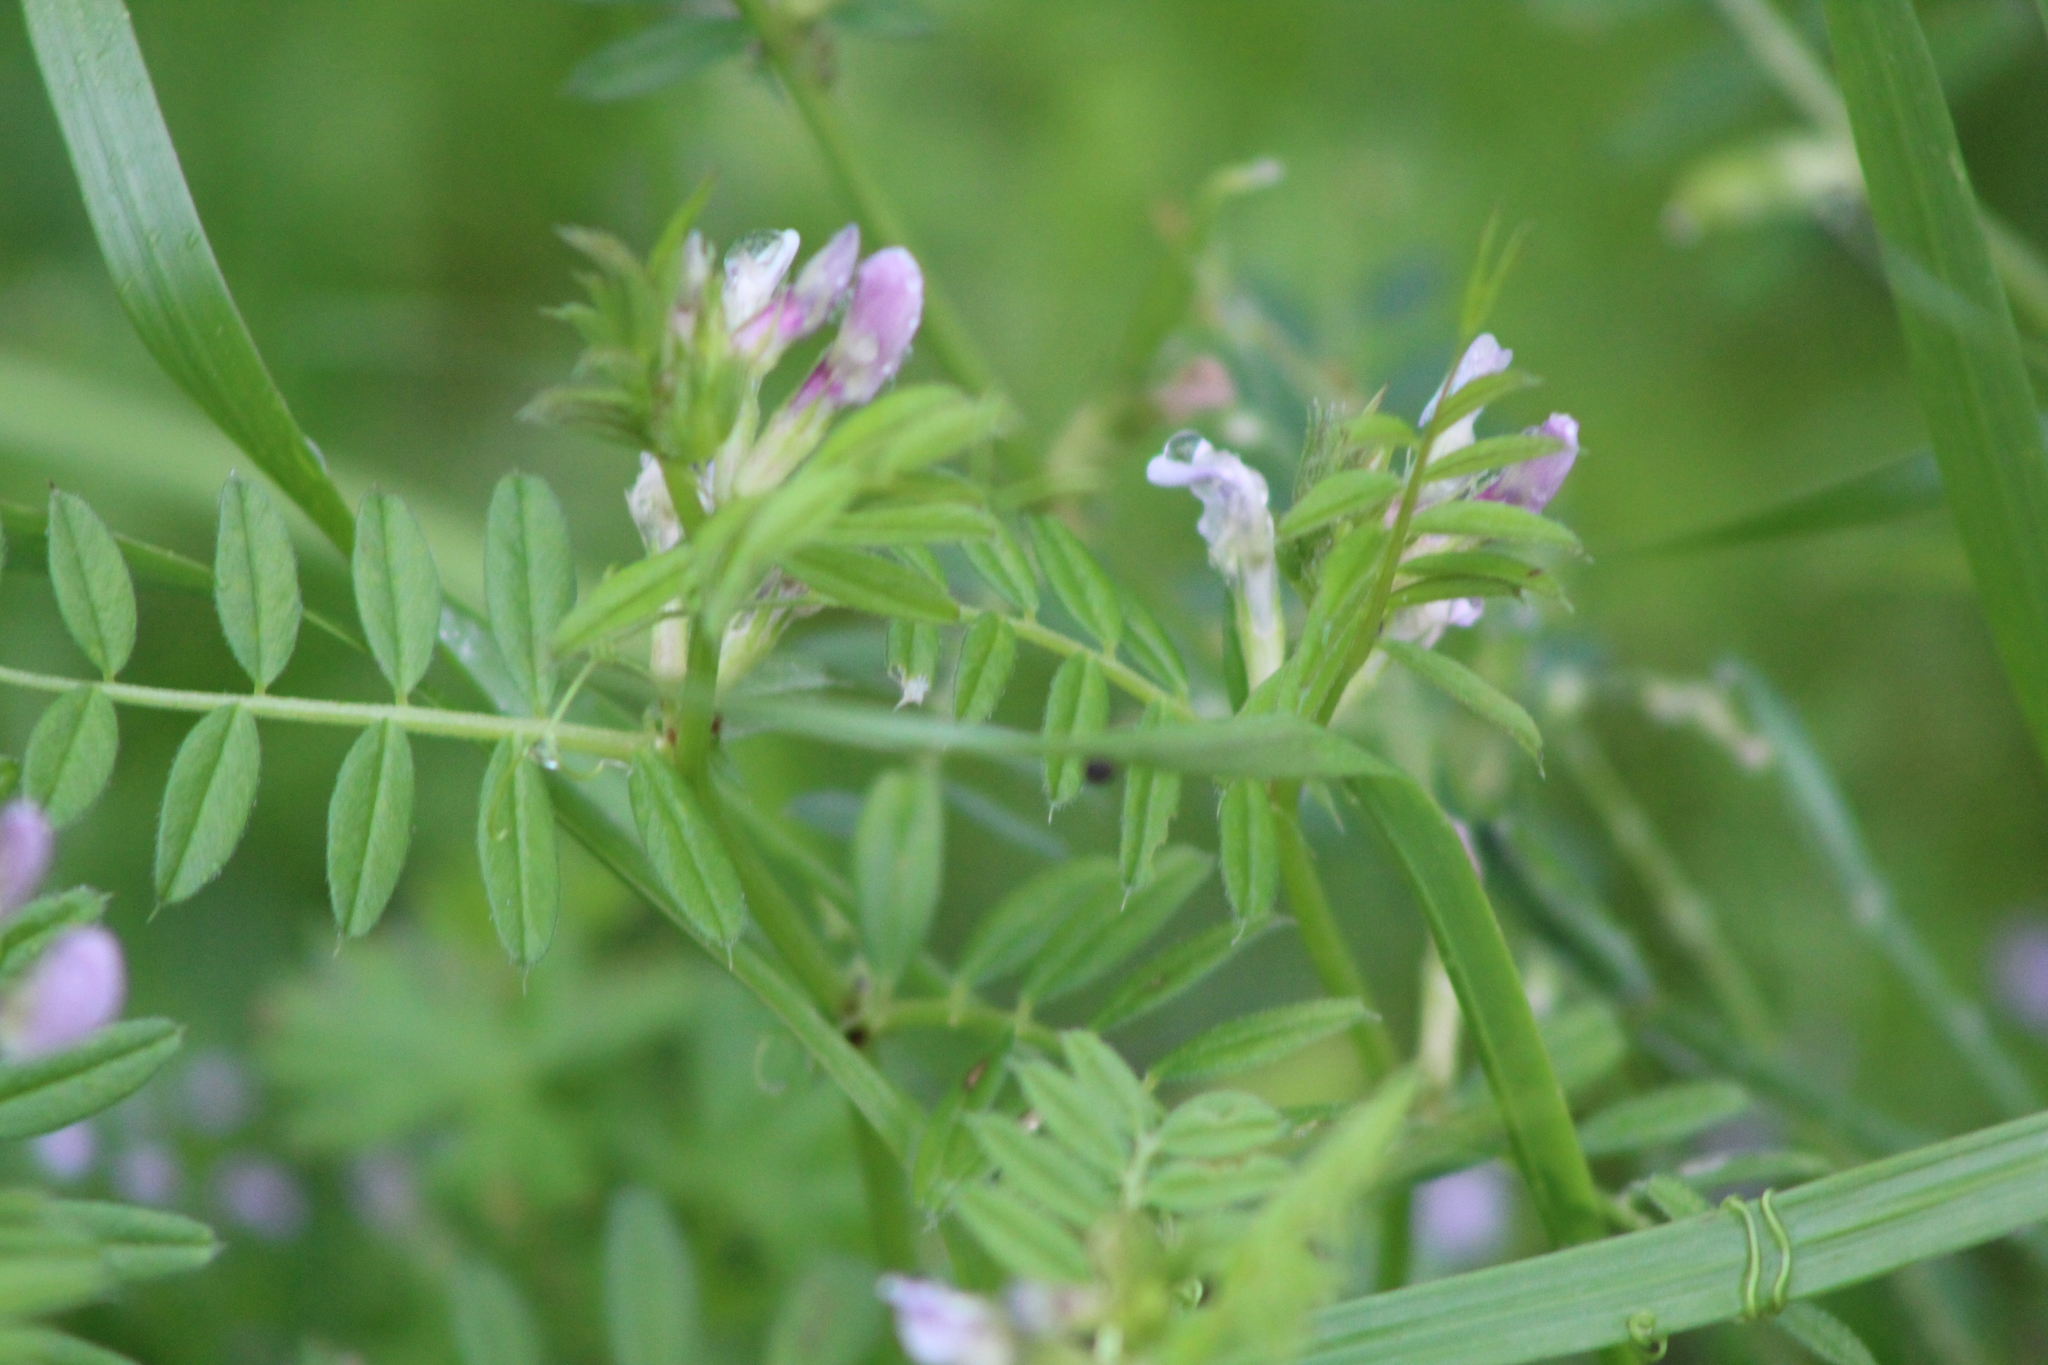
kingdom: Plantae
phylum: Tracheophyta
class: Magnoliopsida
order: Fabales
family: Fabaceae
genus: Vicia
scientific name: Vicia sativa
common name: Garden vetch
